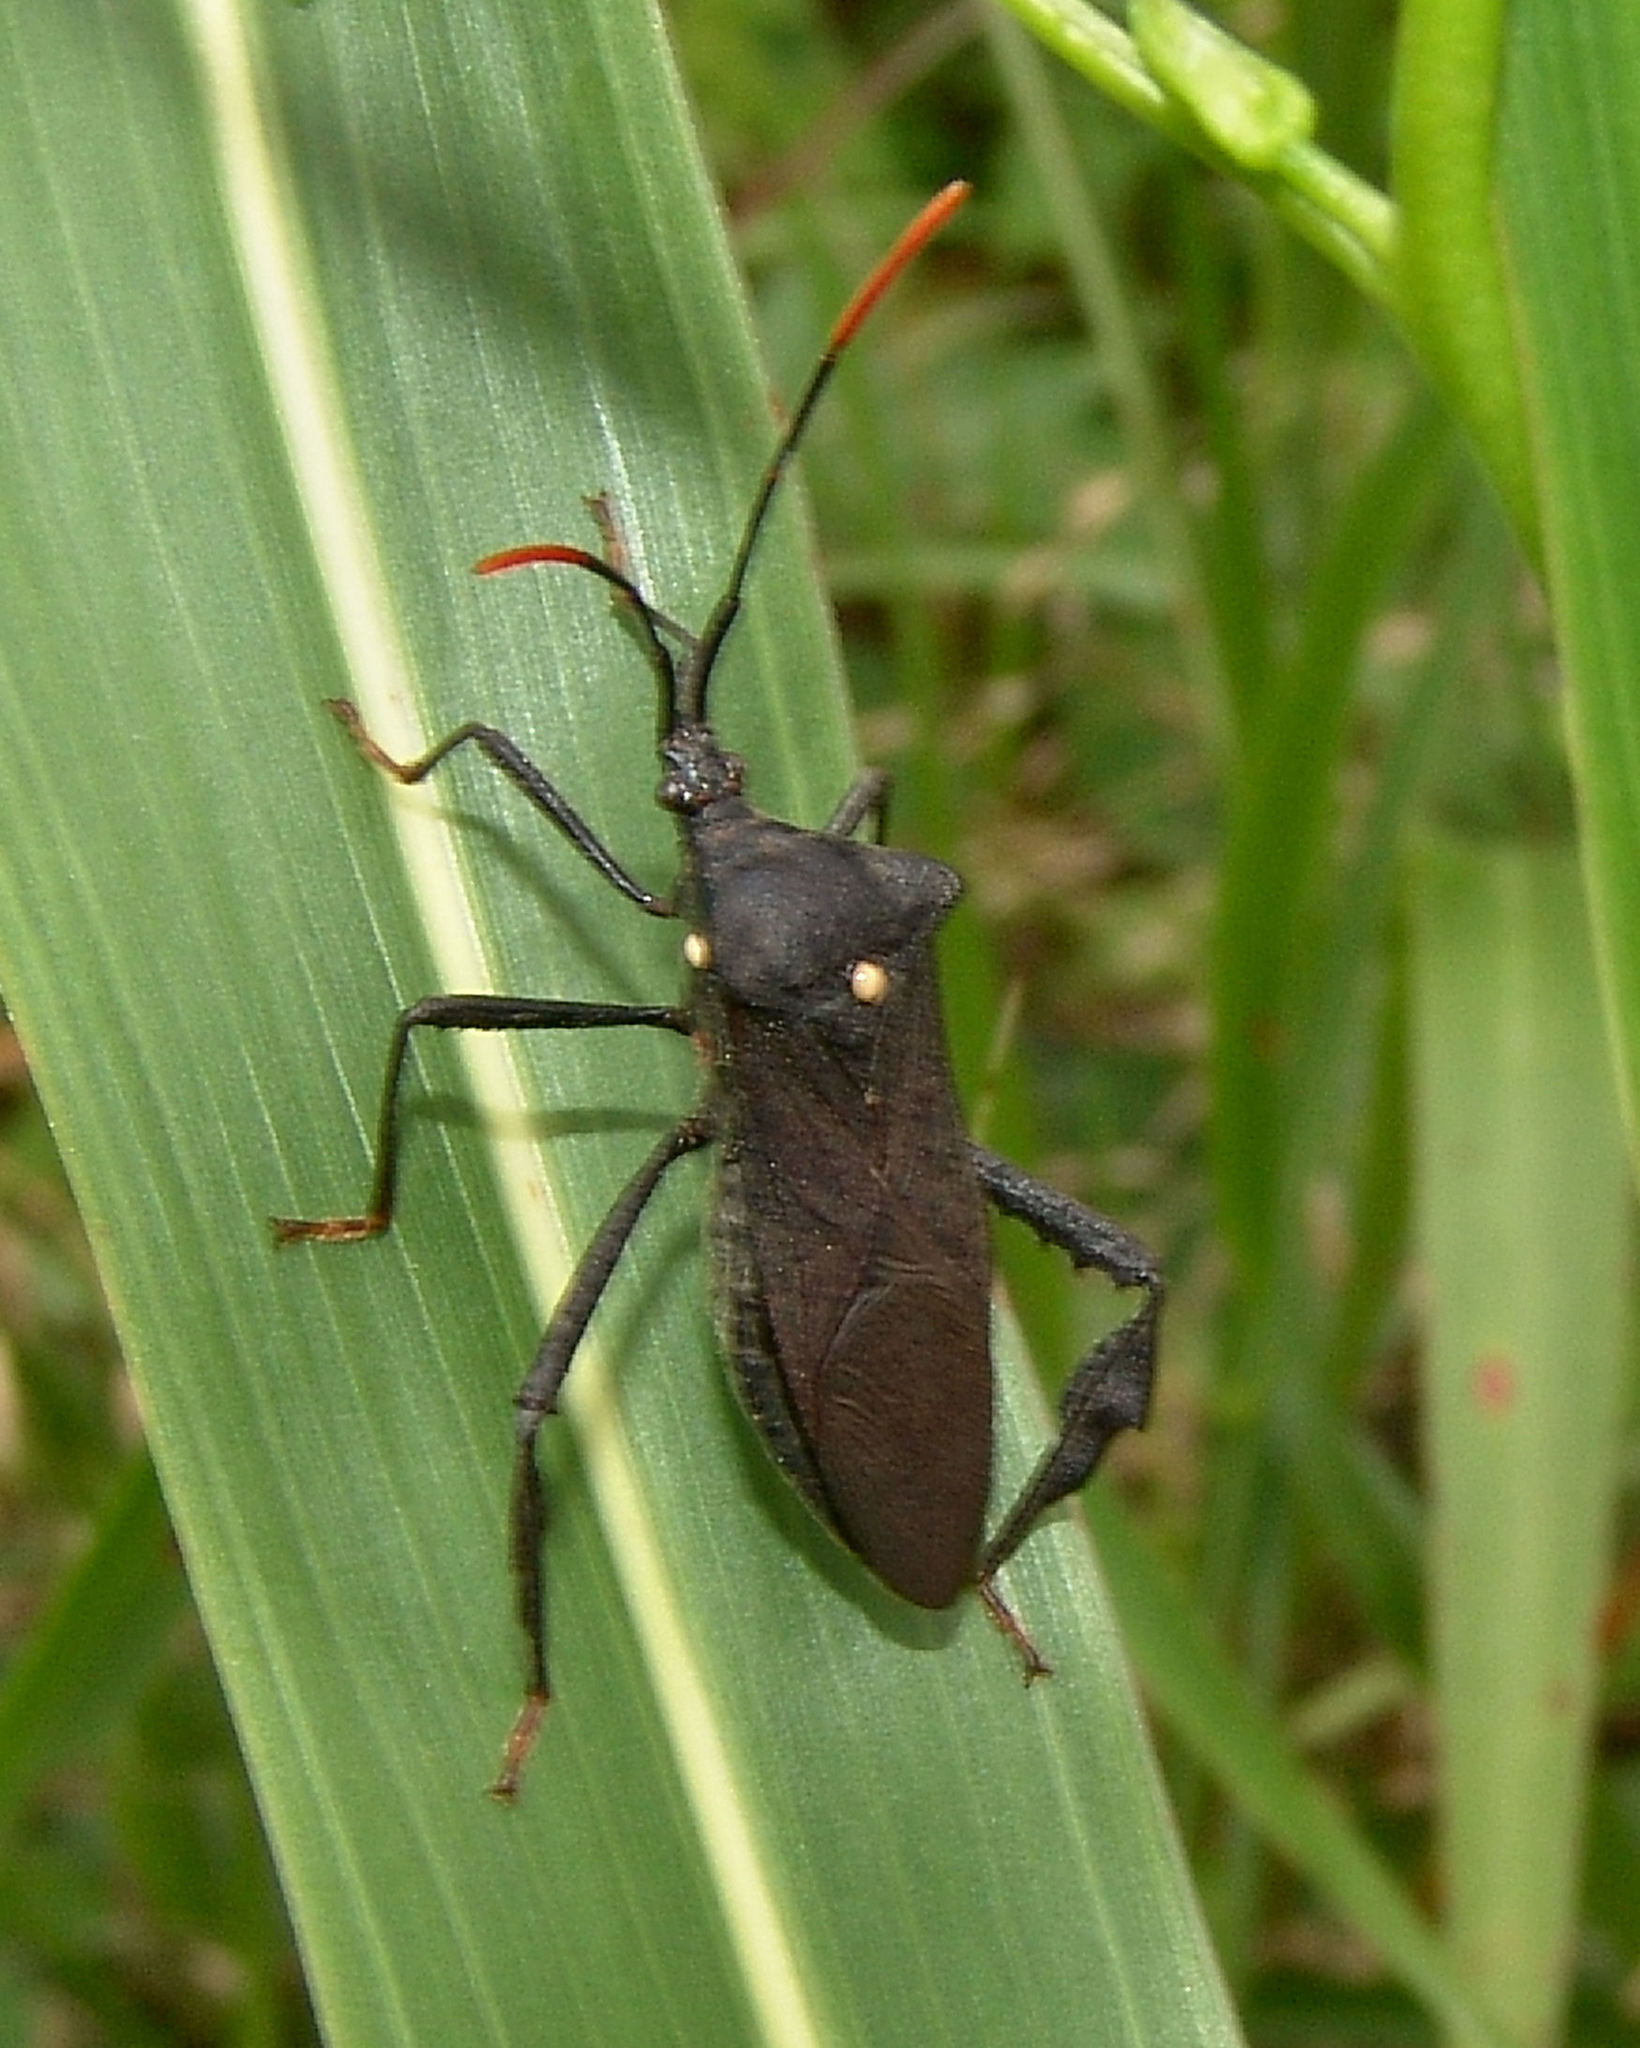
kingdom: Animalia
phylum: Arthropoda
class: Insecta
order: Hemiptera
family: Coreidae
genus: Acanthocephala
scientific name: Acanthocephala terminalis
